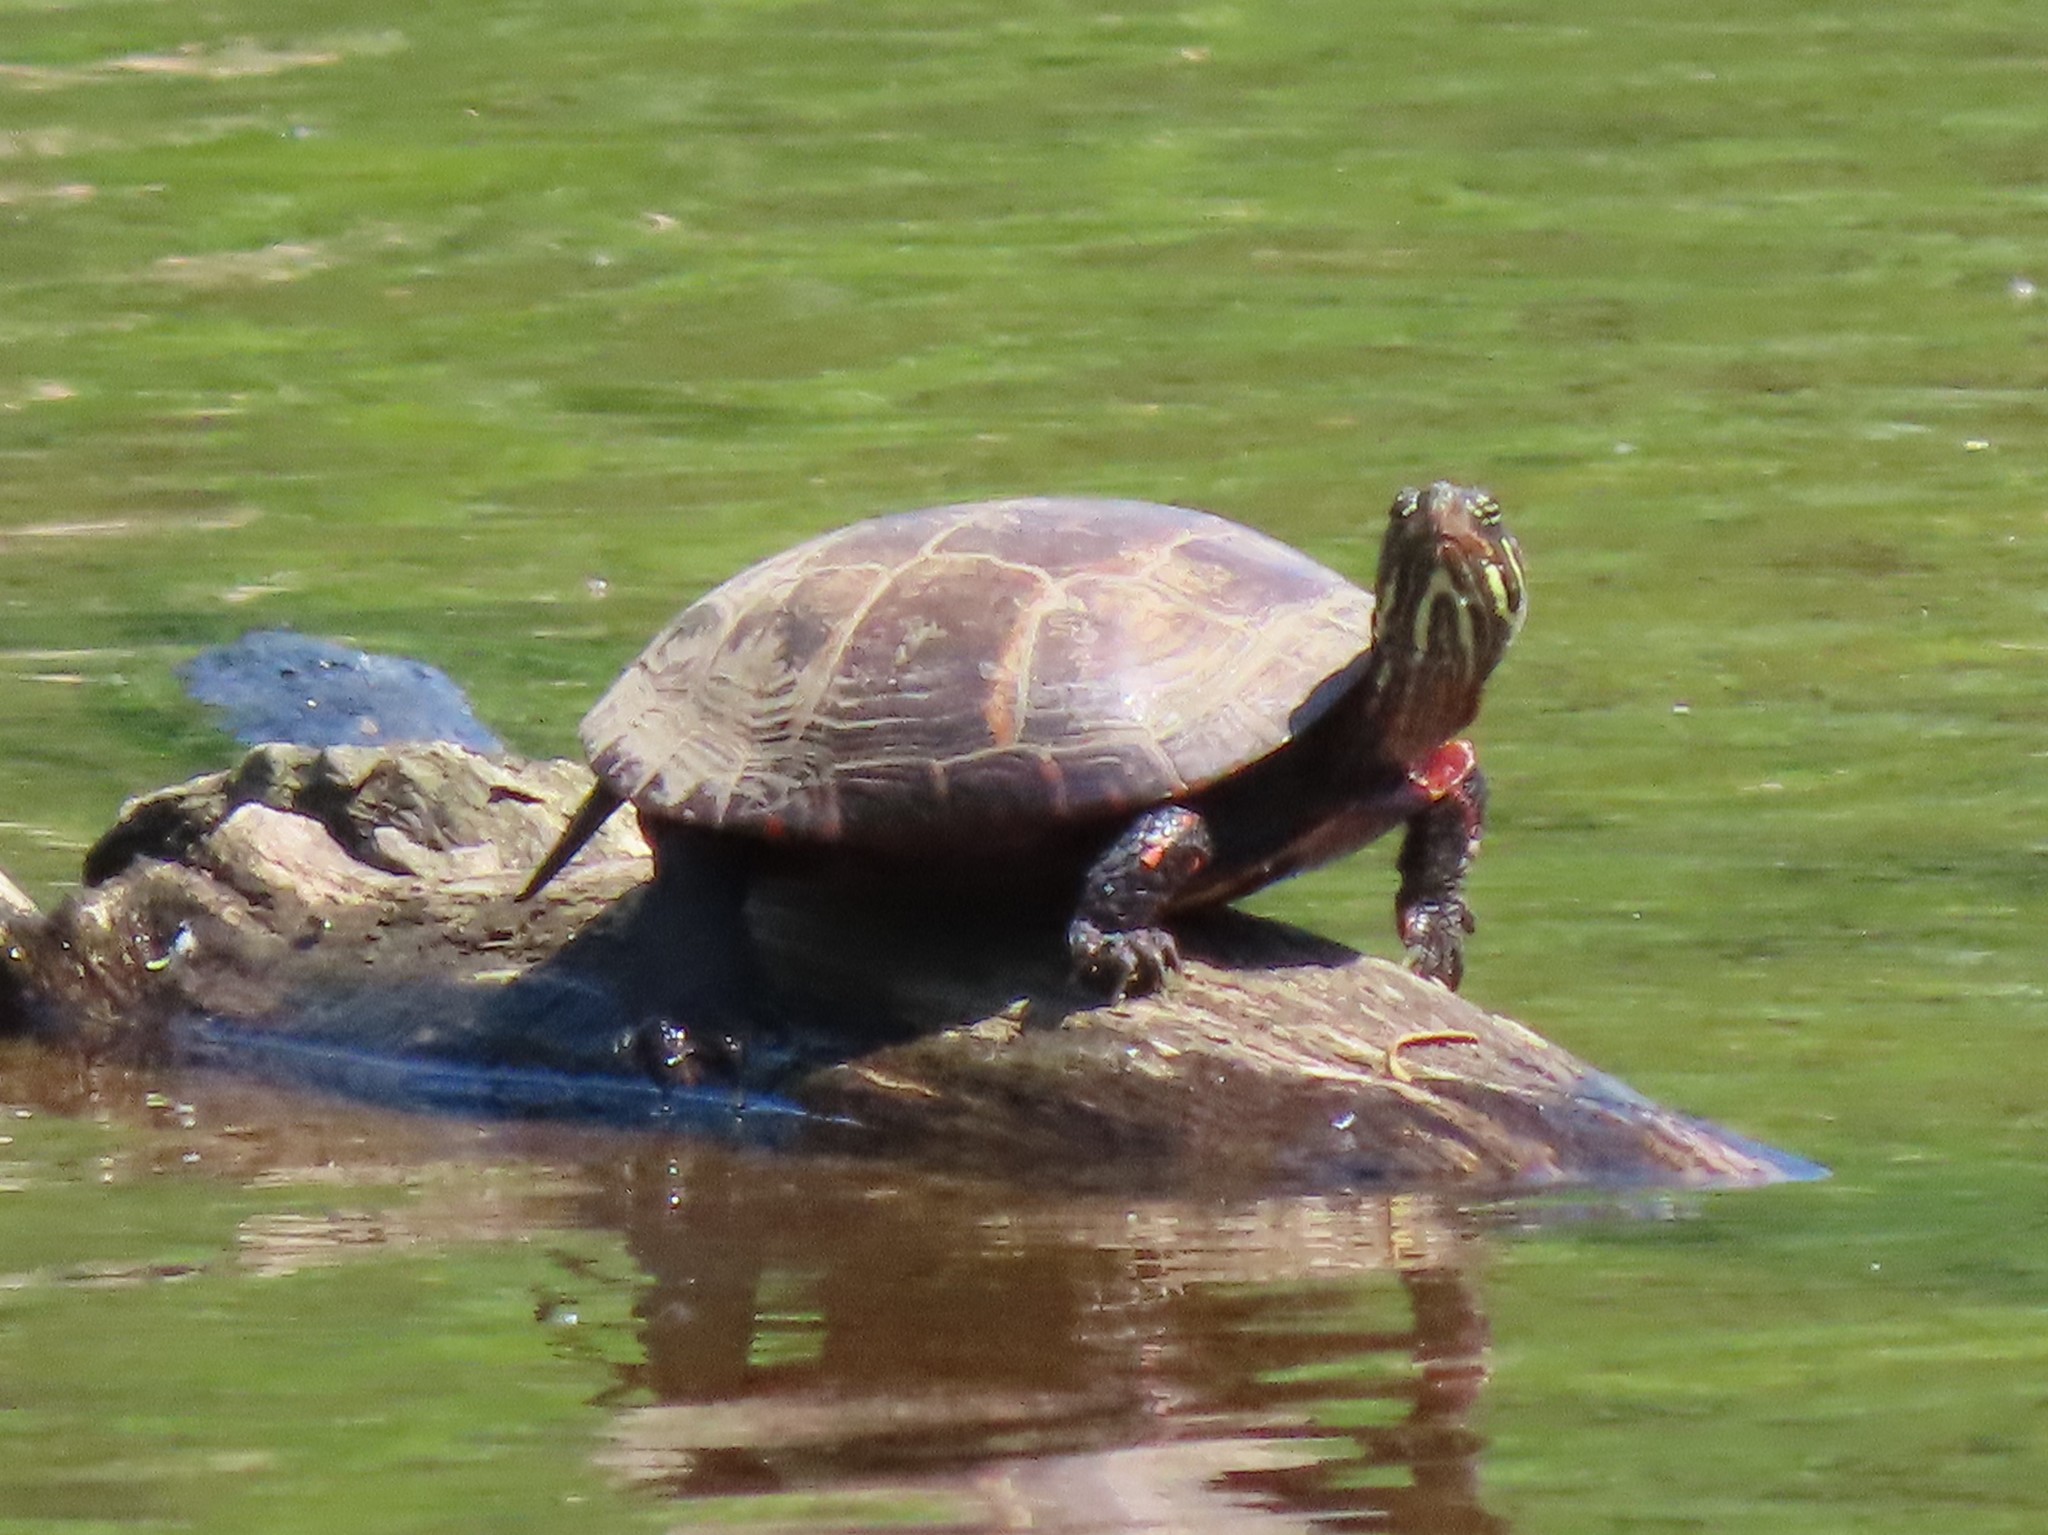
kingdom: Animalia
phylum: Chordata
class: Testudines
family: Emydidae
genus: Chrysemys
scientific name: Chrysemys picta
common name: Painted turtle
